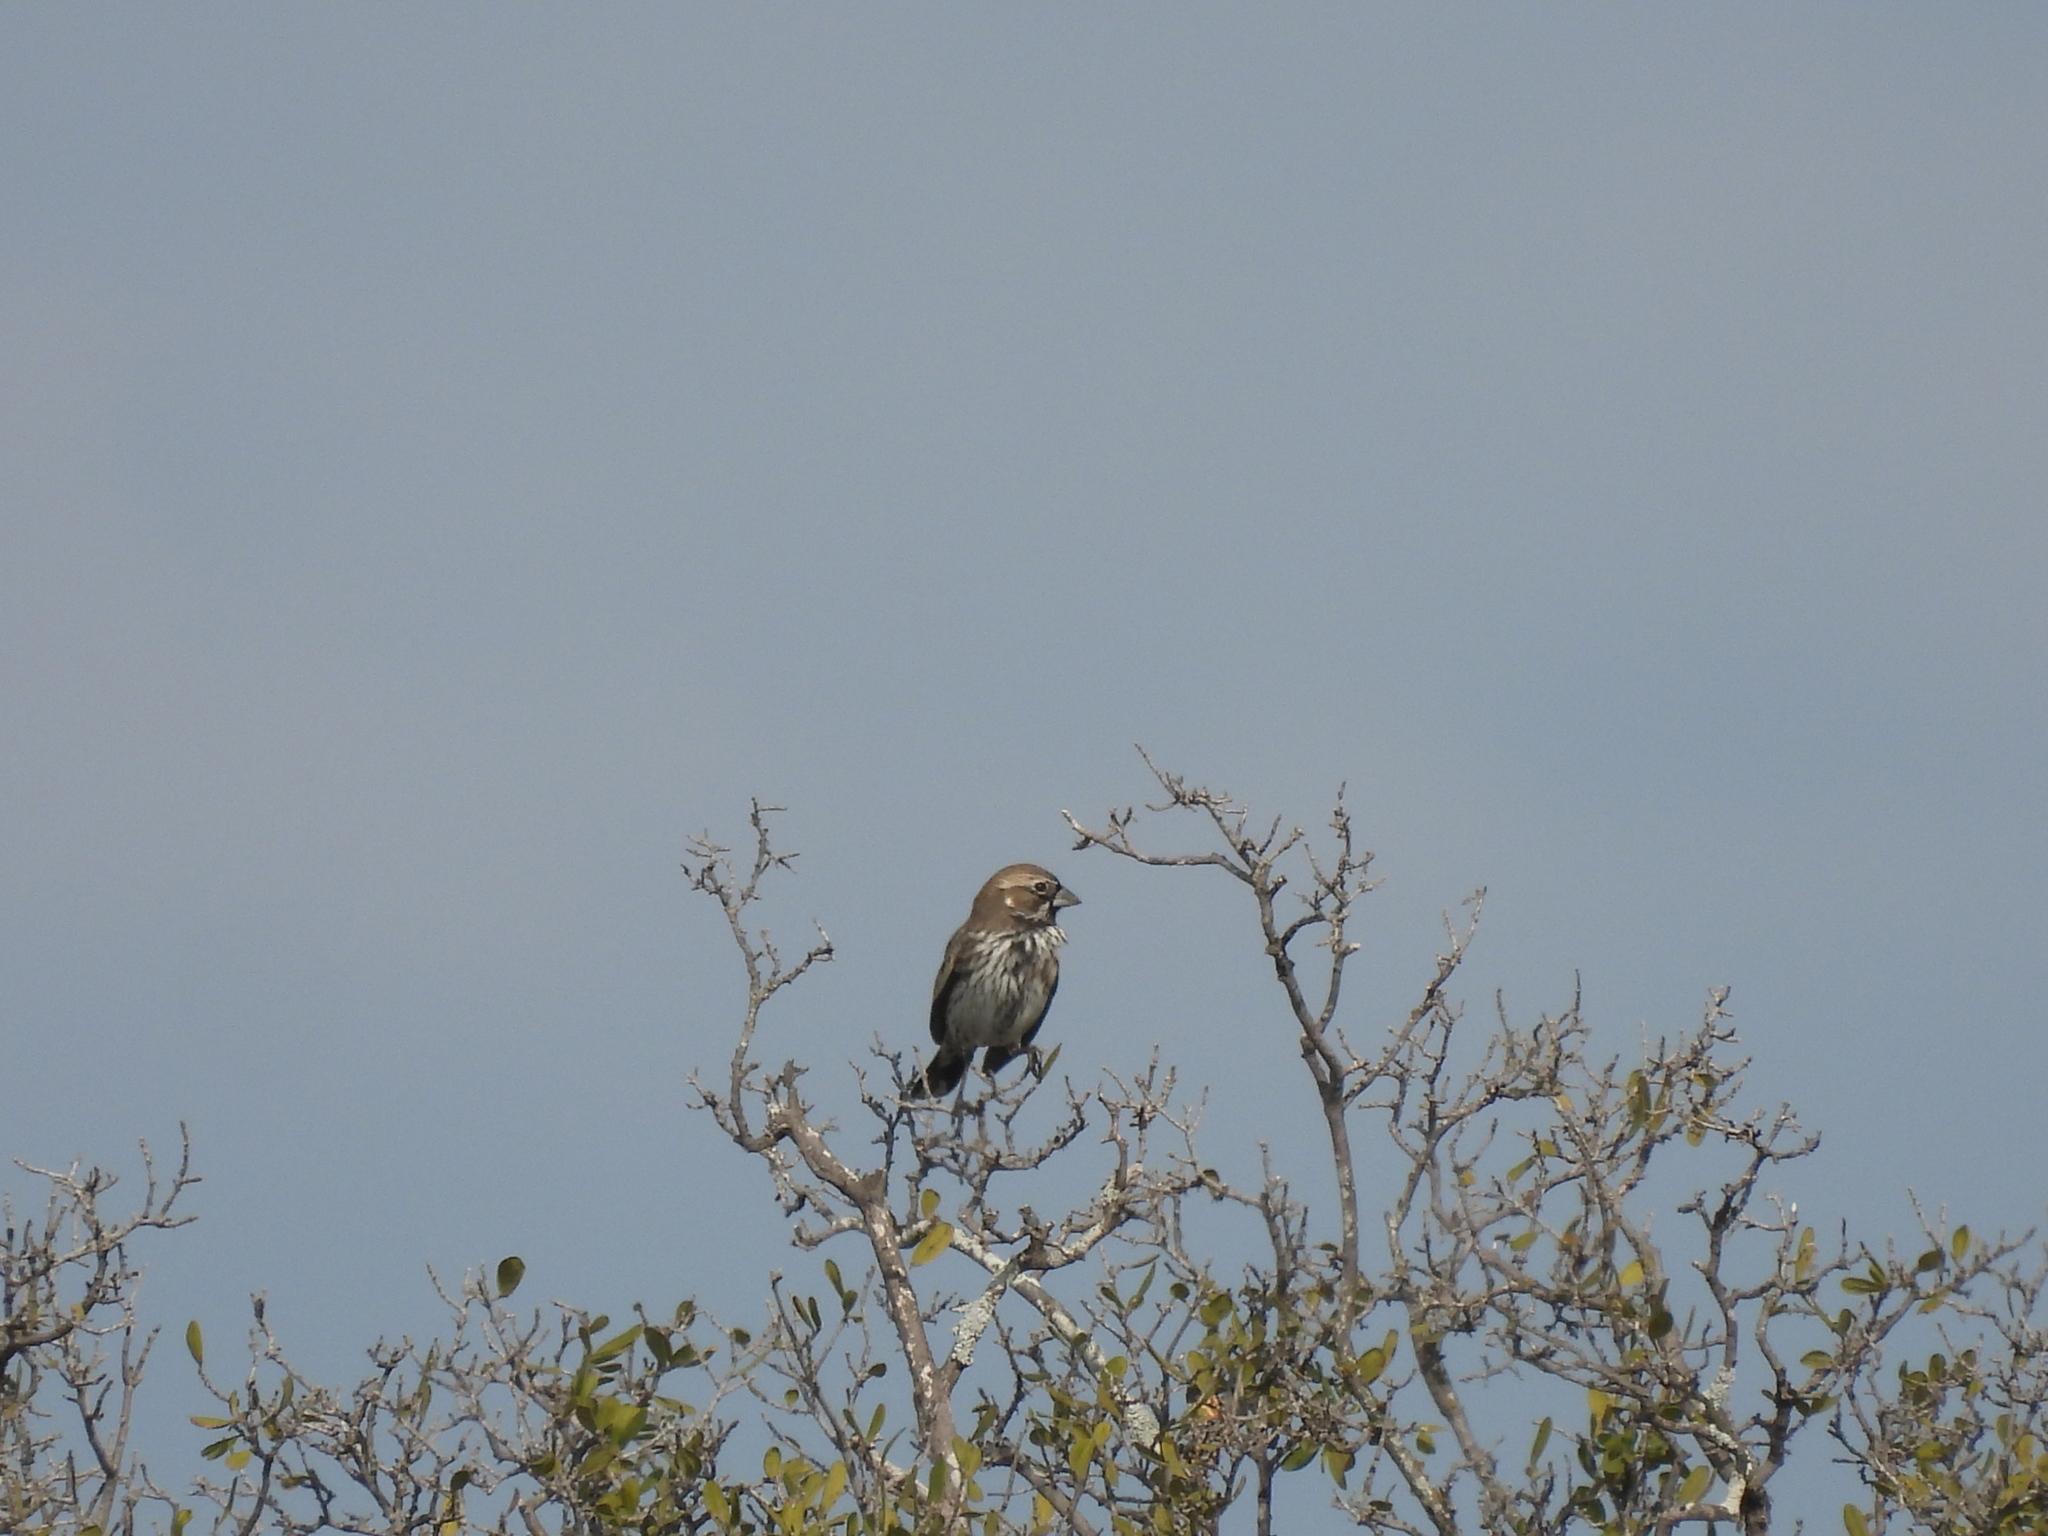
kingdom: Animalia
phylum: Chordata
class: Aves
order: Passeriformes
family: Passerellidae
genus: Calamospiza
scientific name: Calamospiza melanocorys
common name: Lark bunting
